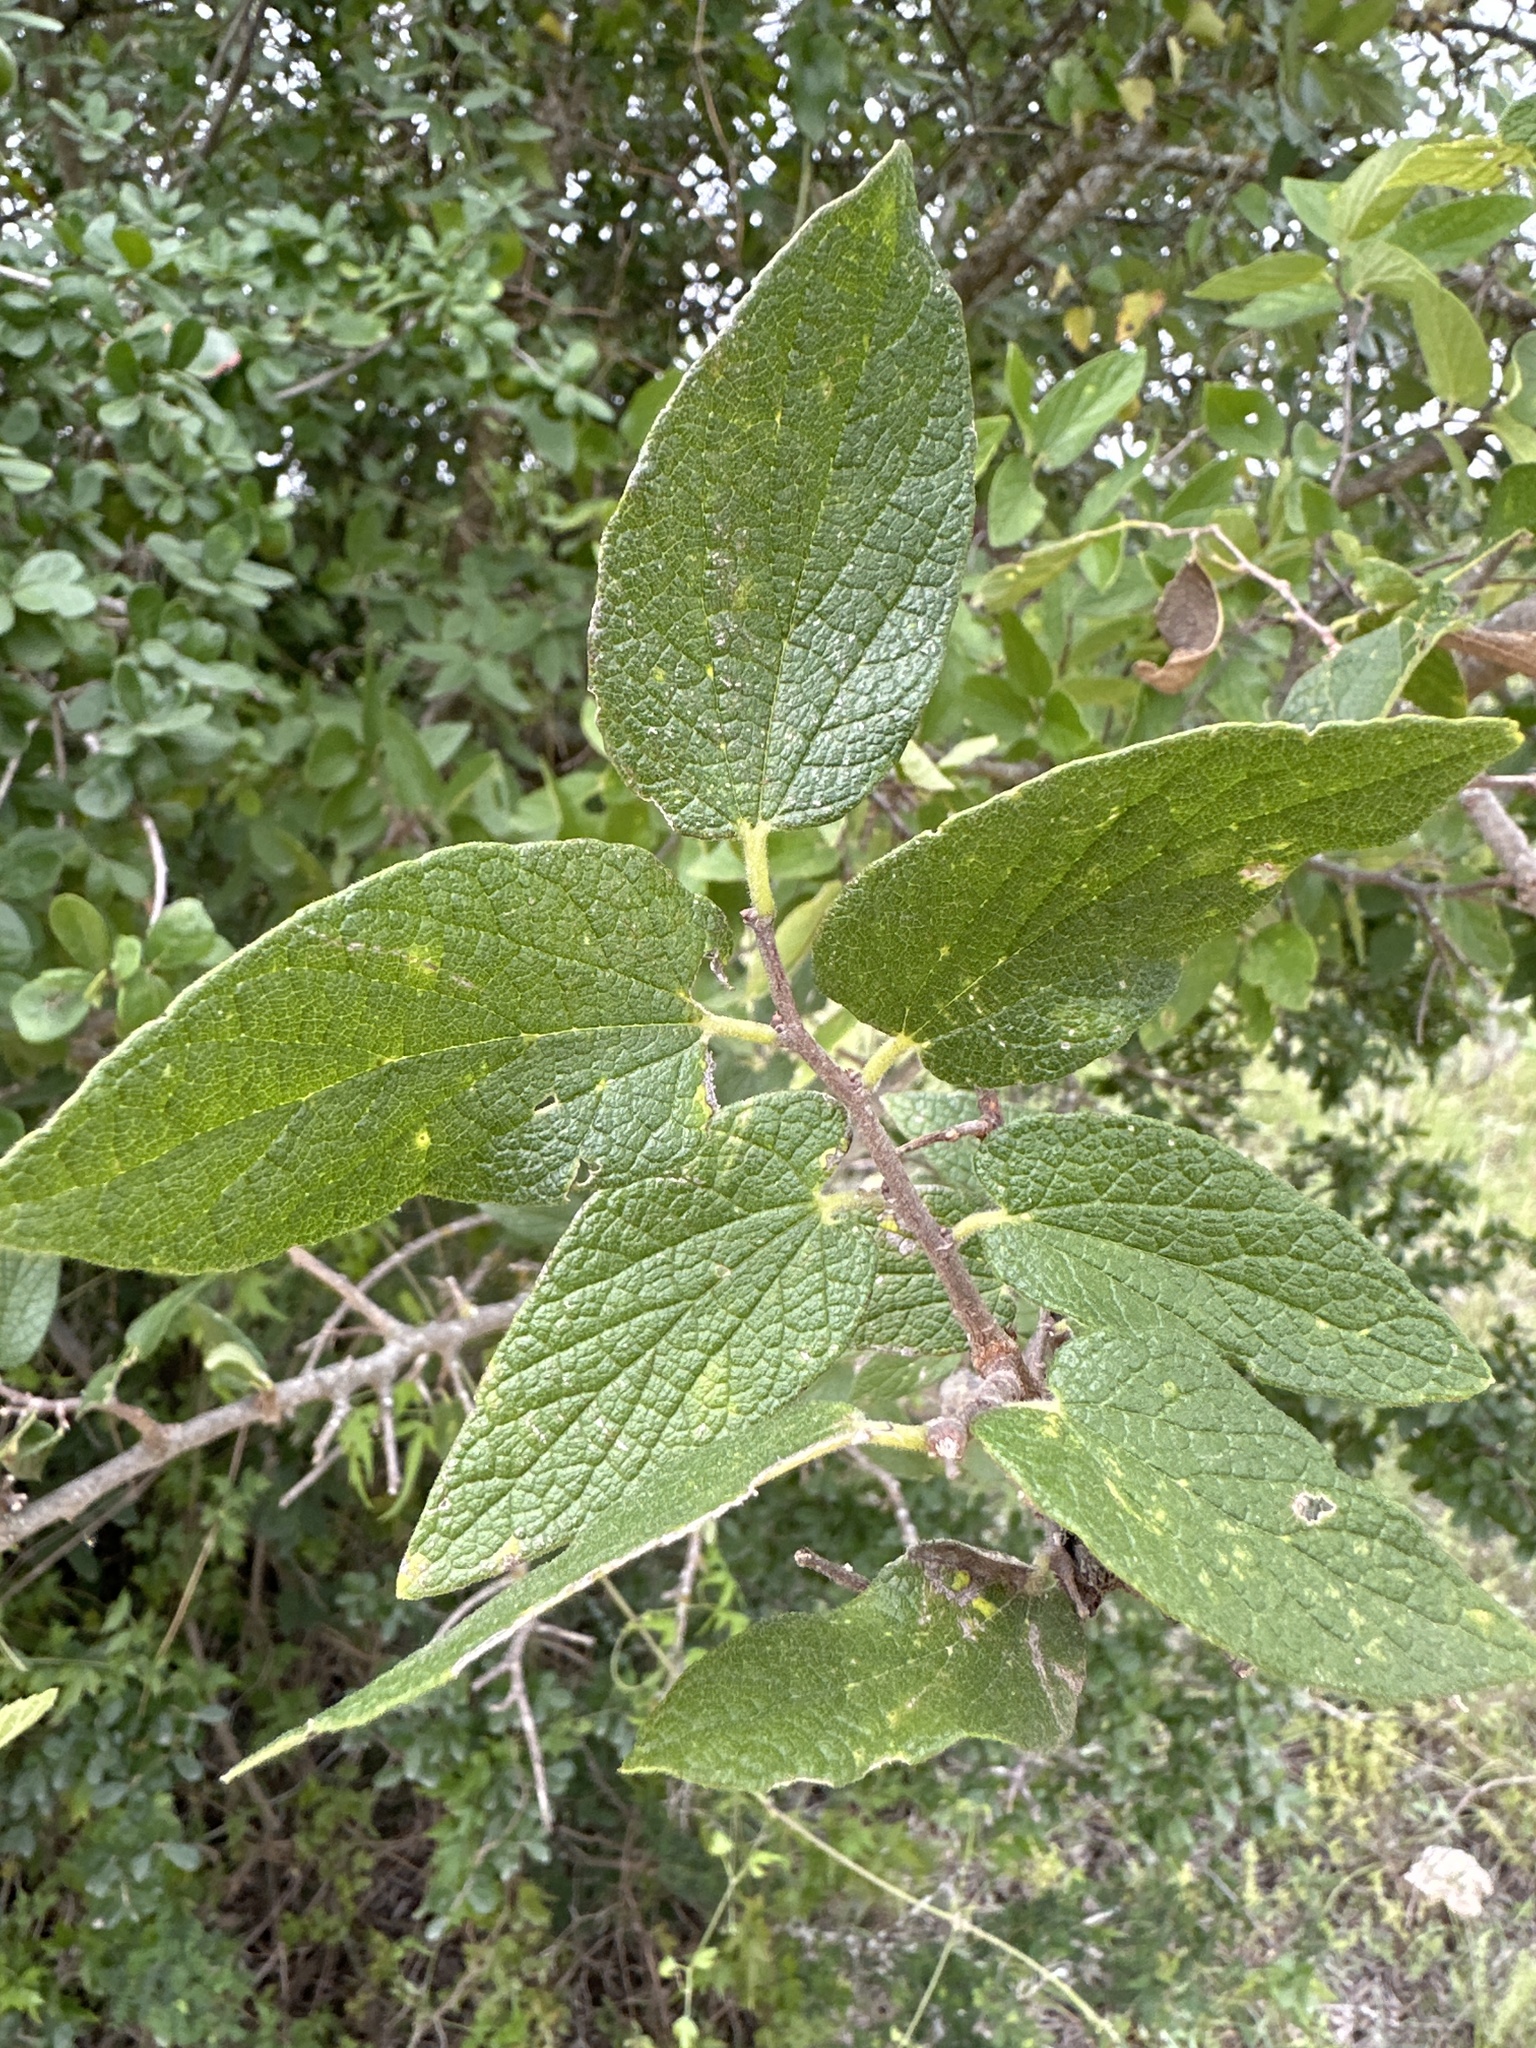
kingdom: Plantae
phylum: Tracheophyta
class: Magnoliopsida
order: Rosales
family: Cannabaceae
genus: Celtis
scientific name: Celtis reticulata
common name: Netleaf hackberry
